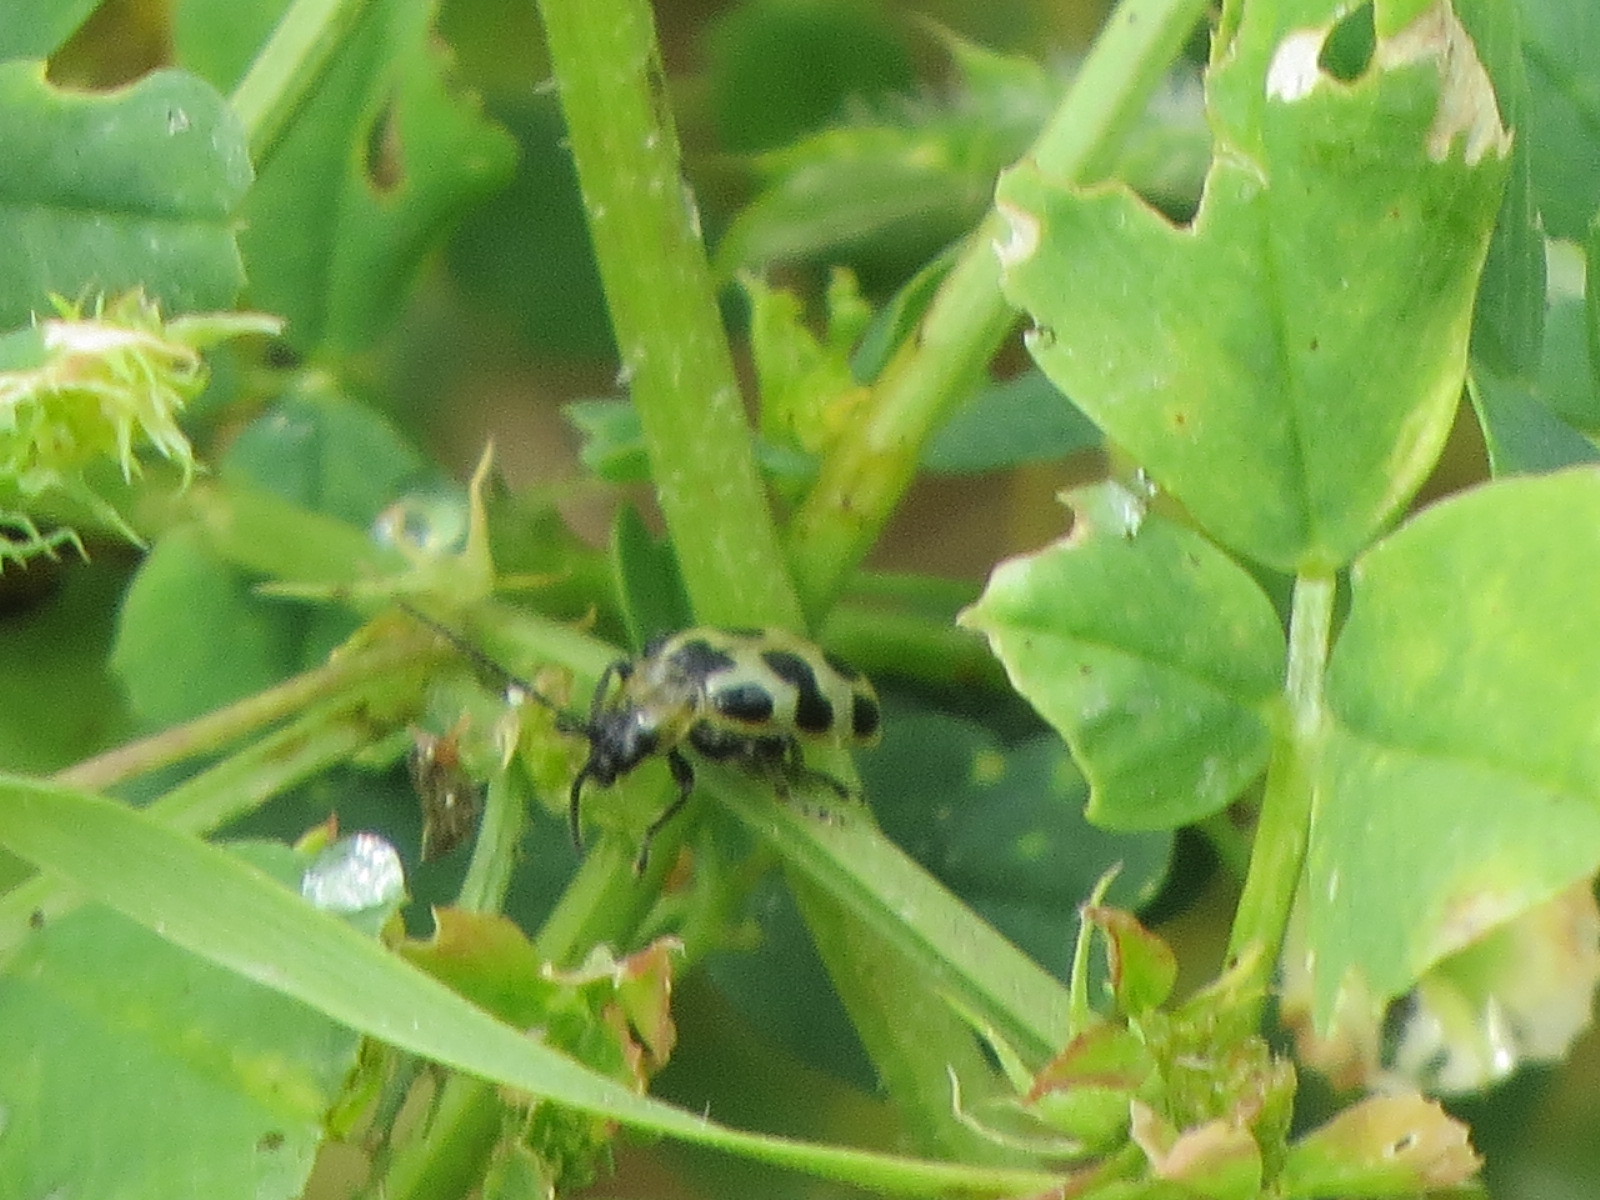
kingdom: Animalia
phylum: Arthropoda
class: Insecta
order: Coleoptera
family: Chrysomelidae
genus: Diabrotica
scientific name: Diabrotica undecimpunctata
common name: Spotted cucumber beetle
